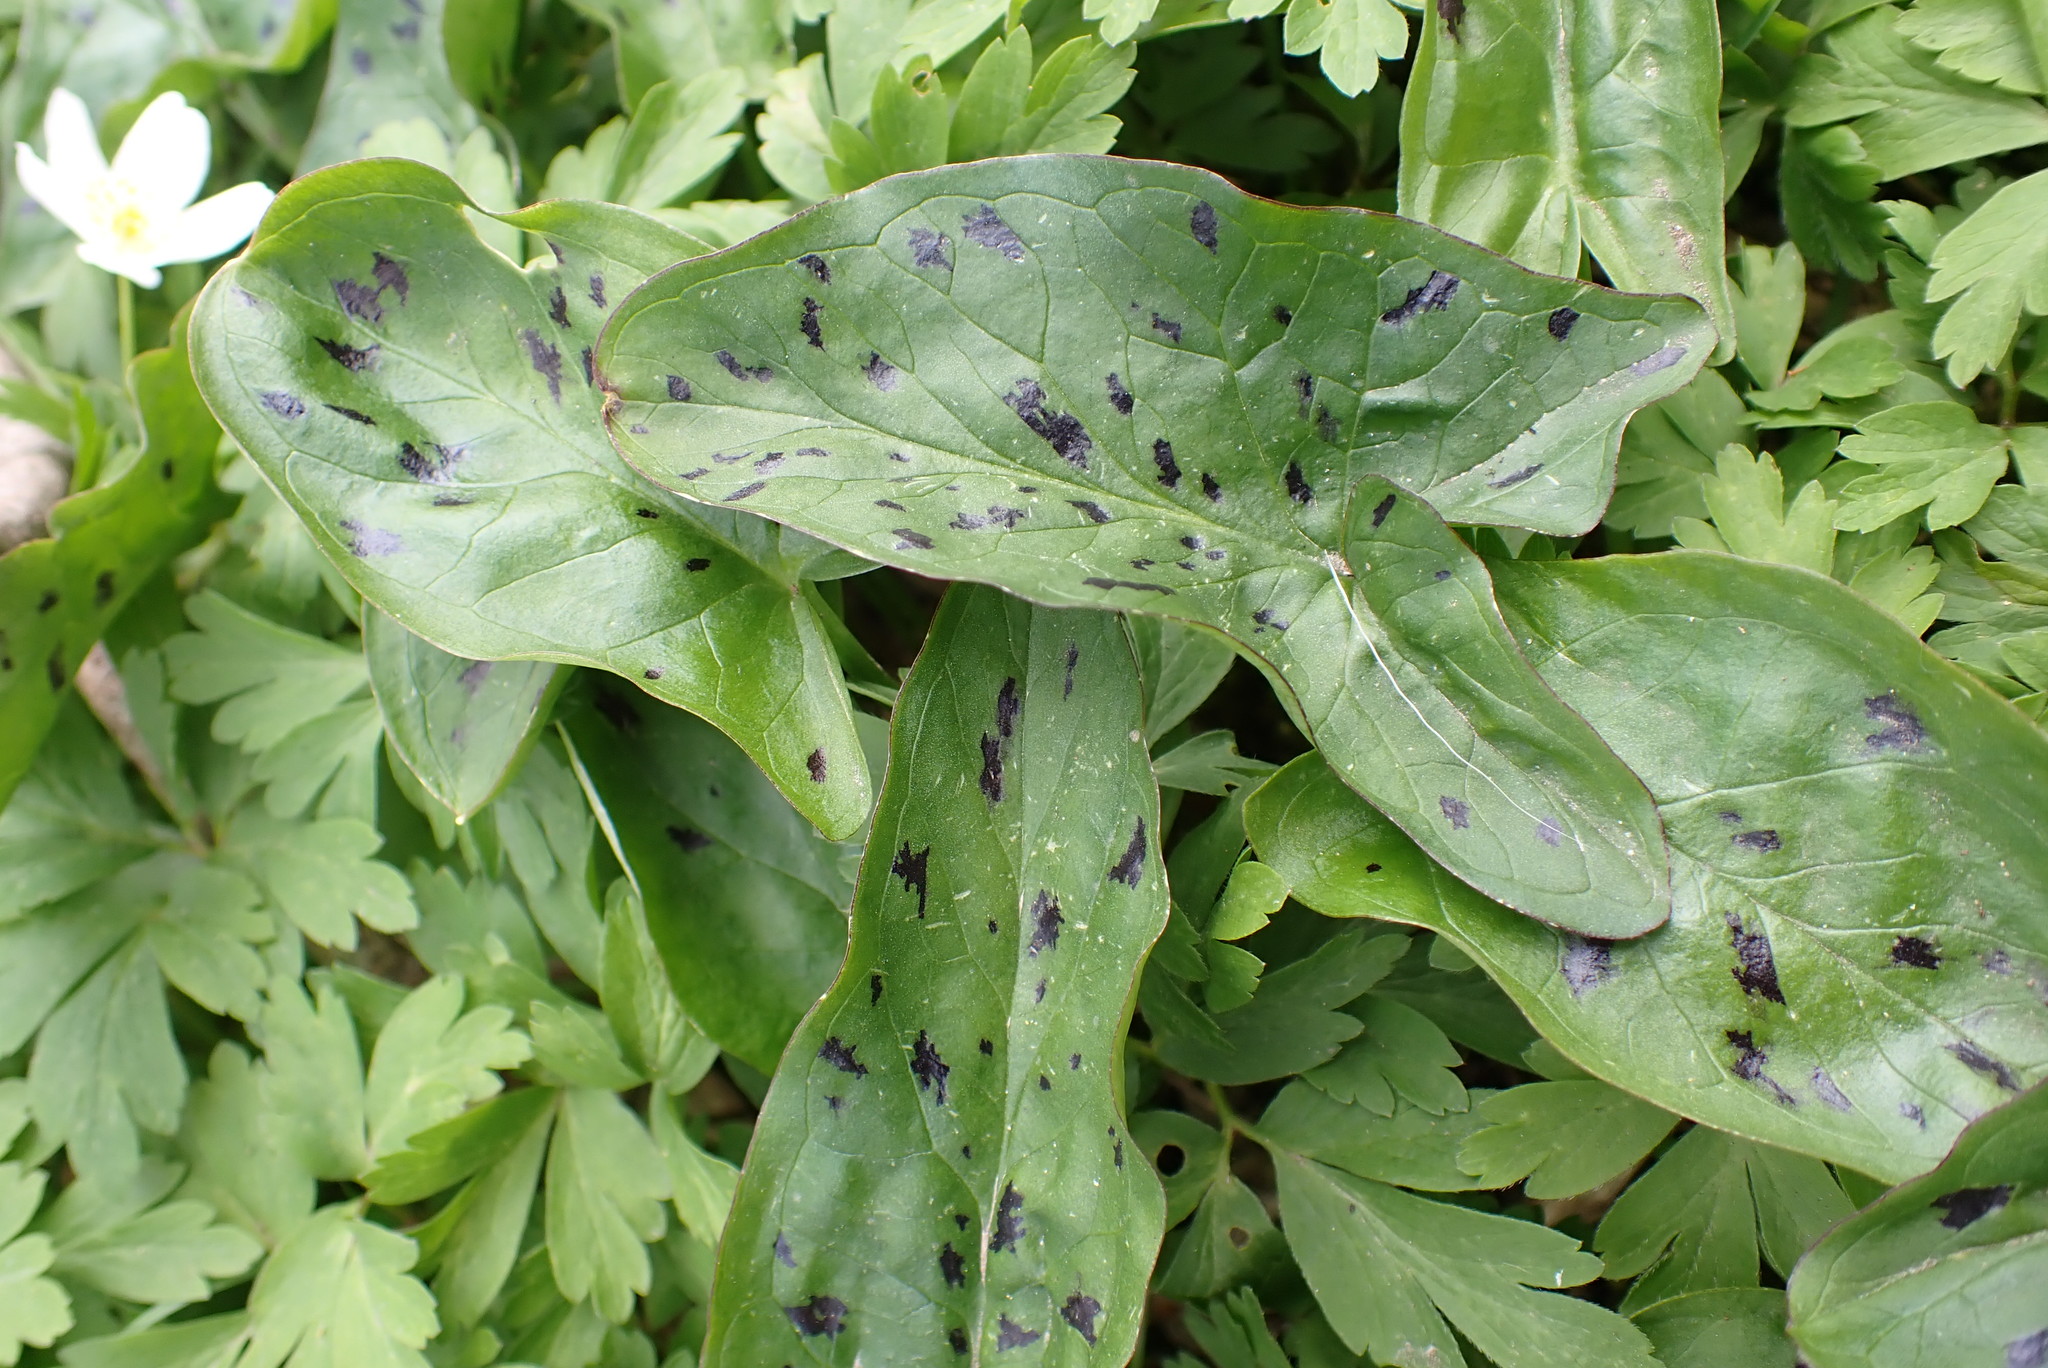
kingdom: Plantae
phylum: Tracheophyta
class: Liliopsida
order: Alismatales
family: Araceae
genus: Arum
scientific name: Arum maculatum
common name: Lords-and-ladies
